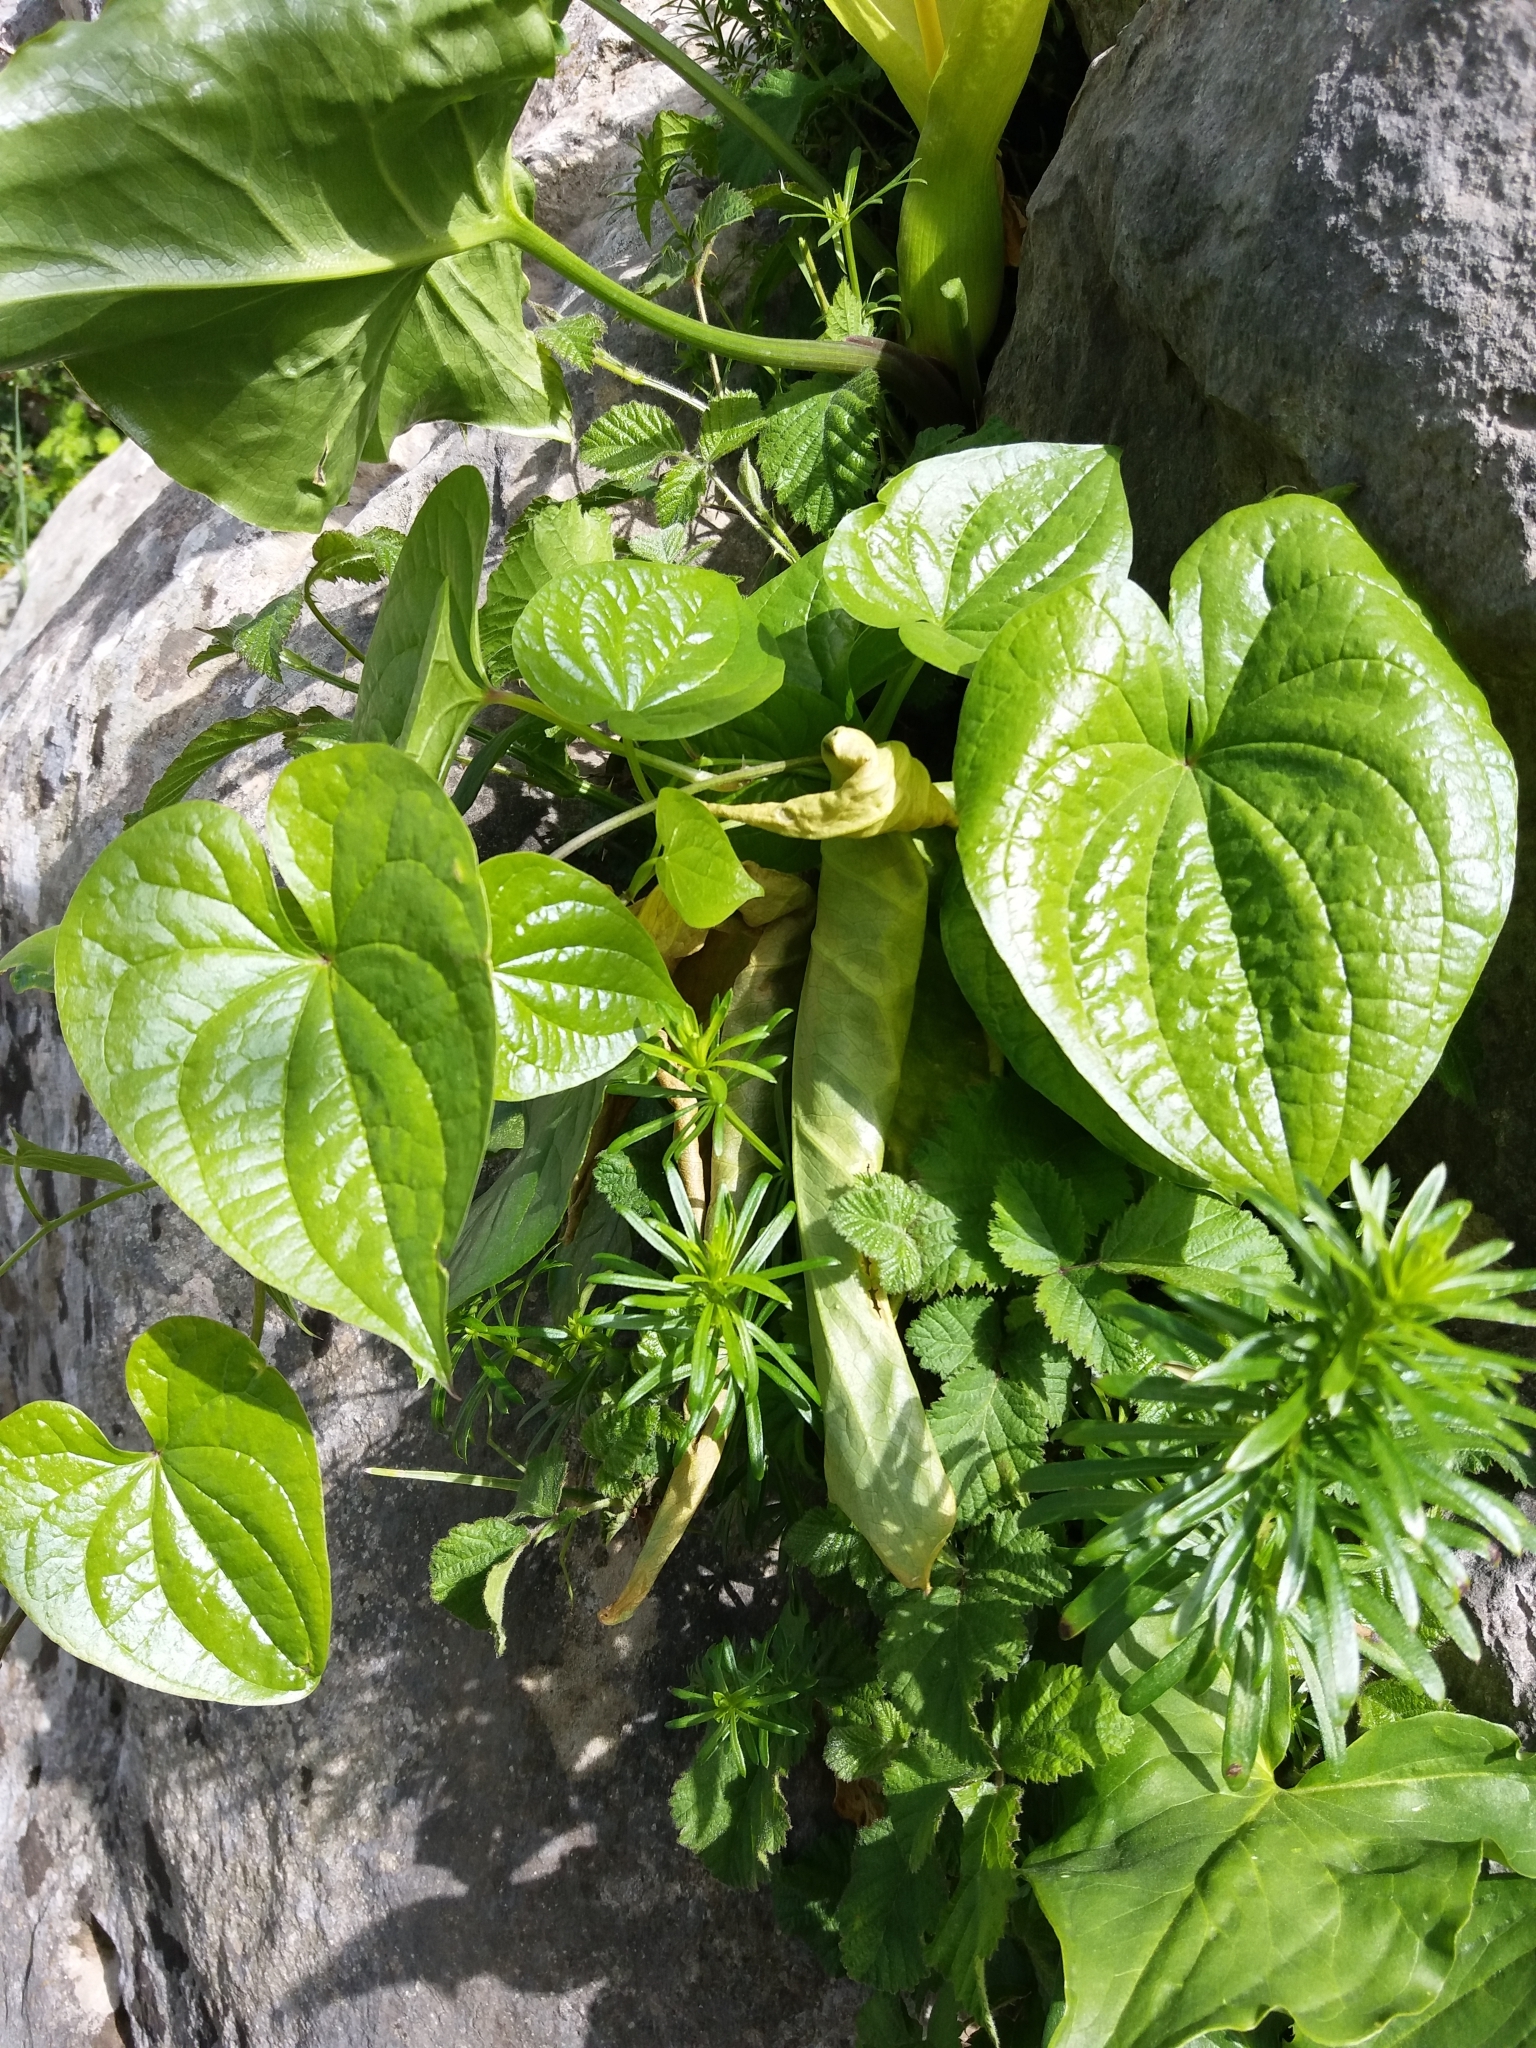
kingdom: Plantae
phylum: Tracheophyta
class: Liliopsida
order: Dioscoreales
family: Dioscoreaceae
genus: Dioscorea
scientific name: Dioscorea communis
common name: Black-bindweed
